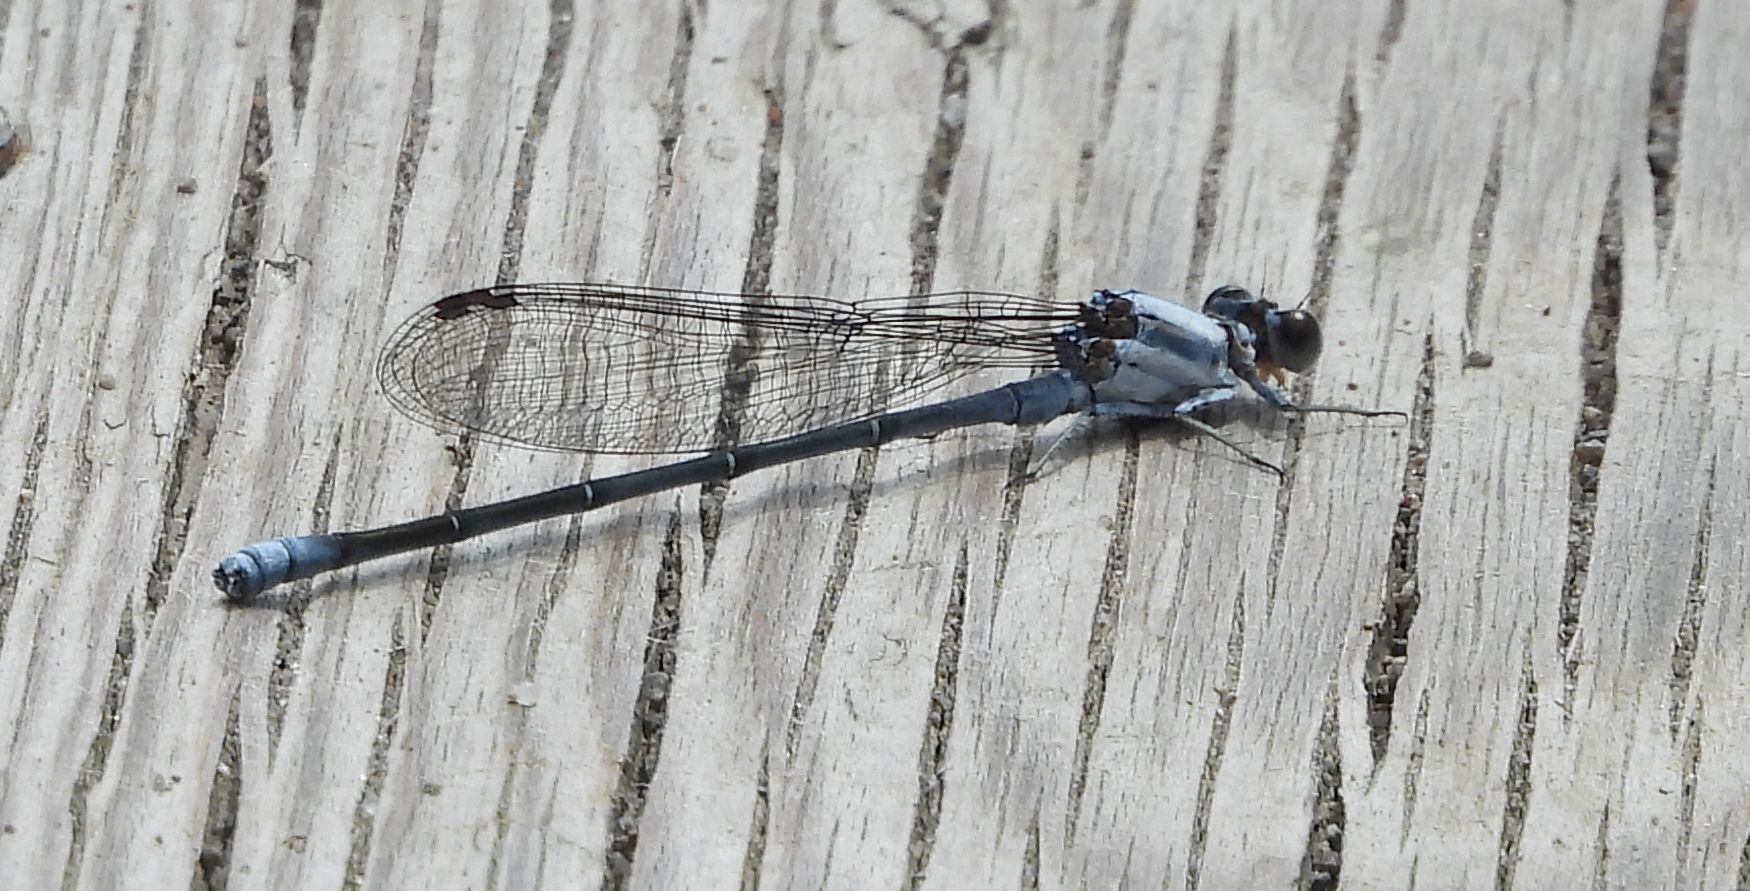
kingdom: Animalia
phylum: Arthropoda
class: Insecta
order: Odonata
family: Coenagrionidae
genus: Argia
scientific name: Argia moesta
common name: Powdered dancer
